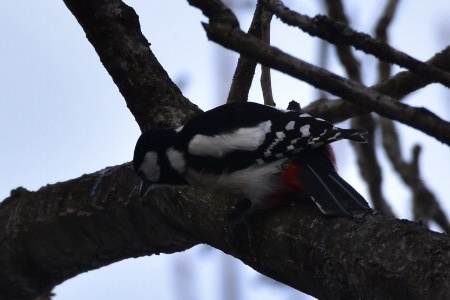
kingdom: Animalia
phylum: Chordata
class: Aves
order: Piciformes
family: Picidae
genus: Dendrocopos
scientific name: Dendrocopos major
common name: Great spotted woodpecker
